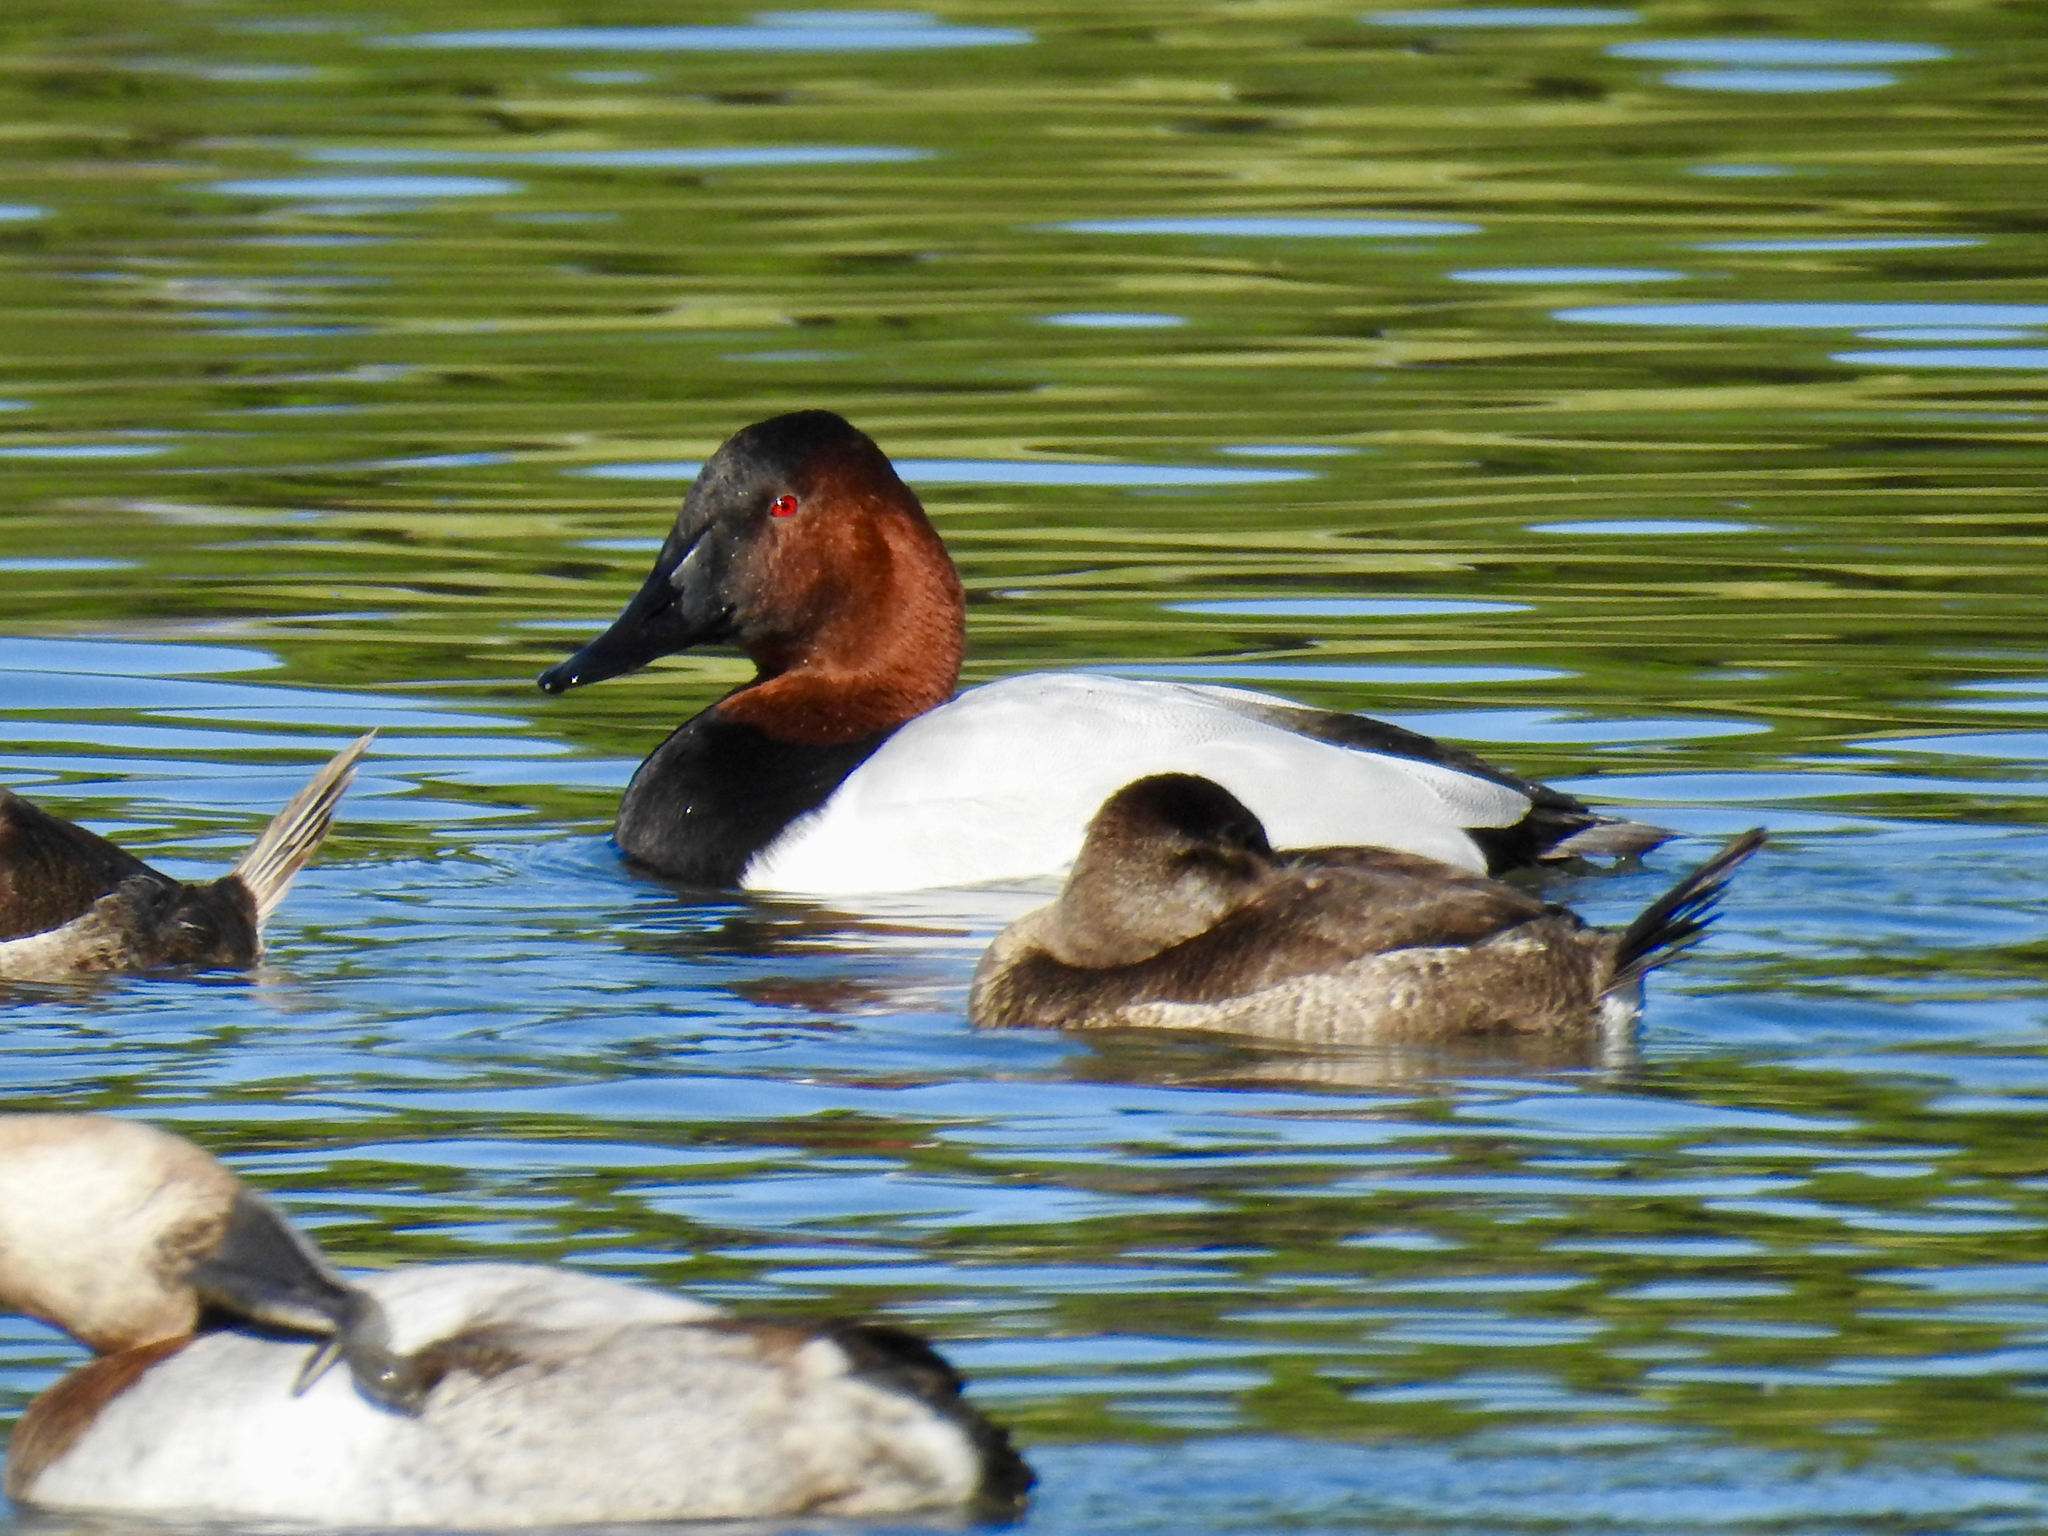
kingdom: Animalia
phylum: Chordata
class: Aves
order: Anseriformes
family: Anatidae
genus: Aythya
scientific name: Aythya valisineria
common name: Canvasback
